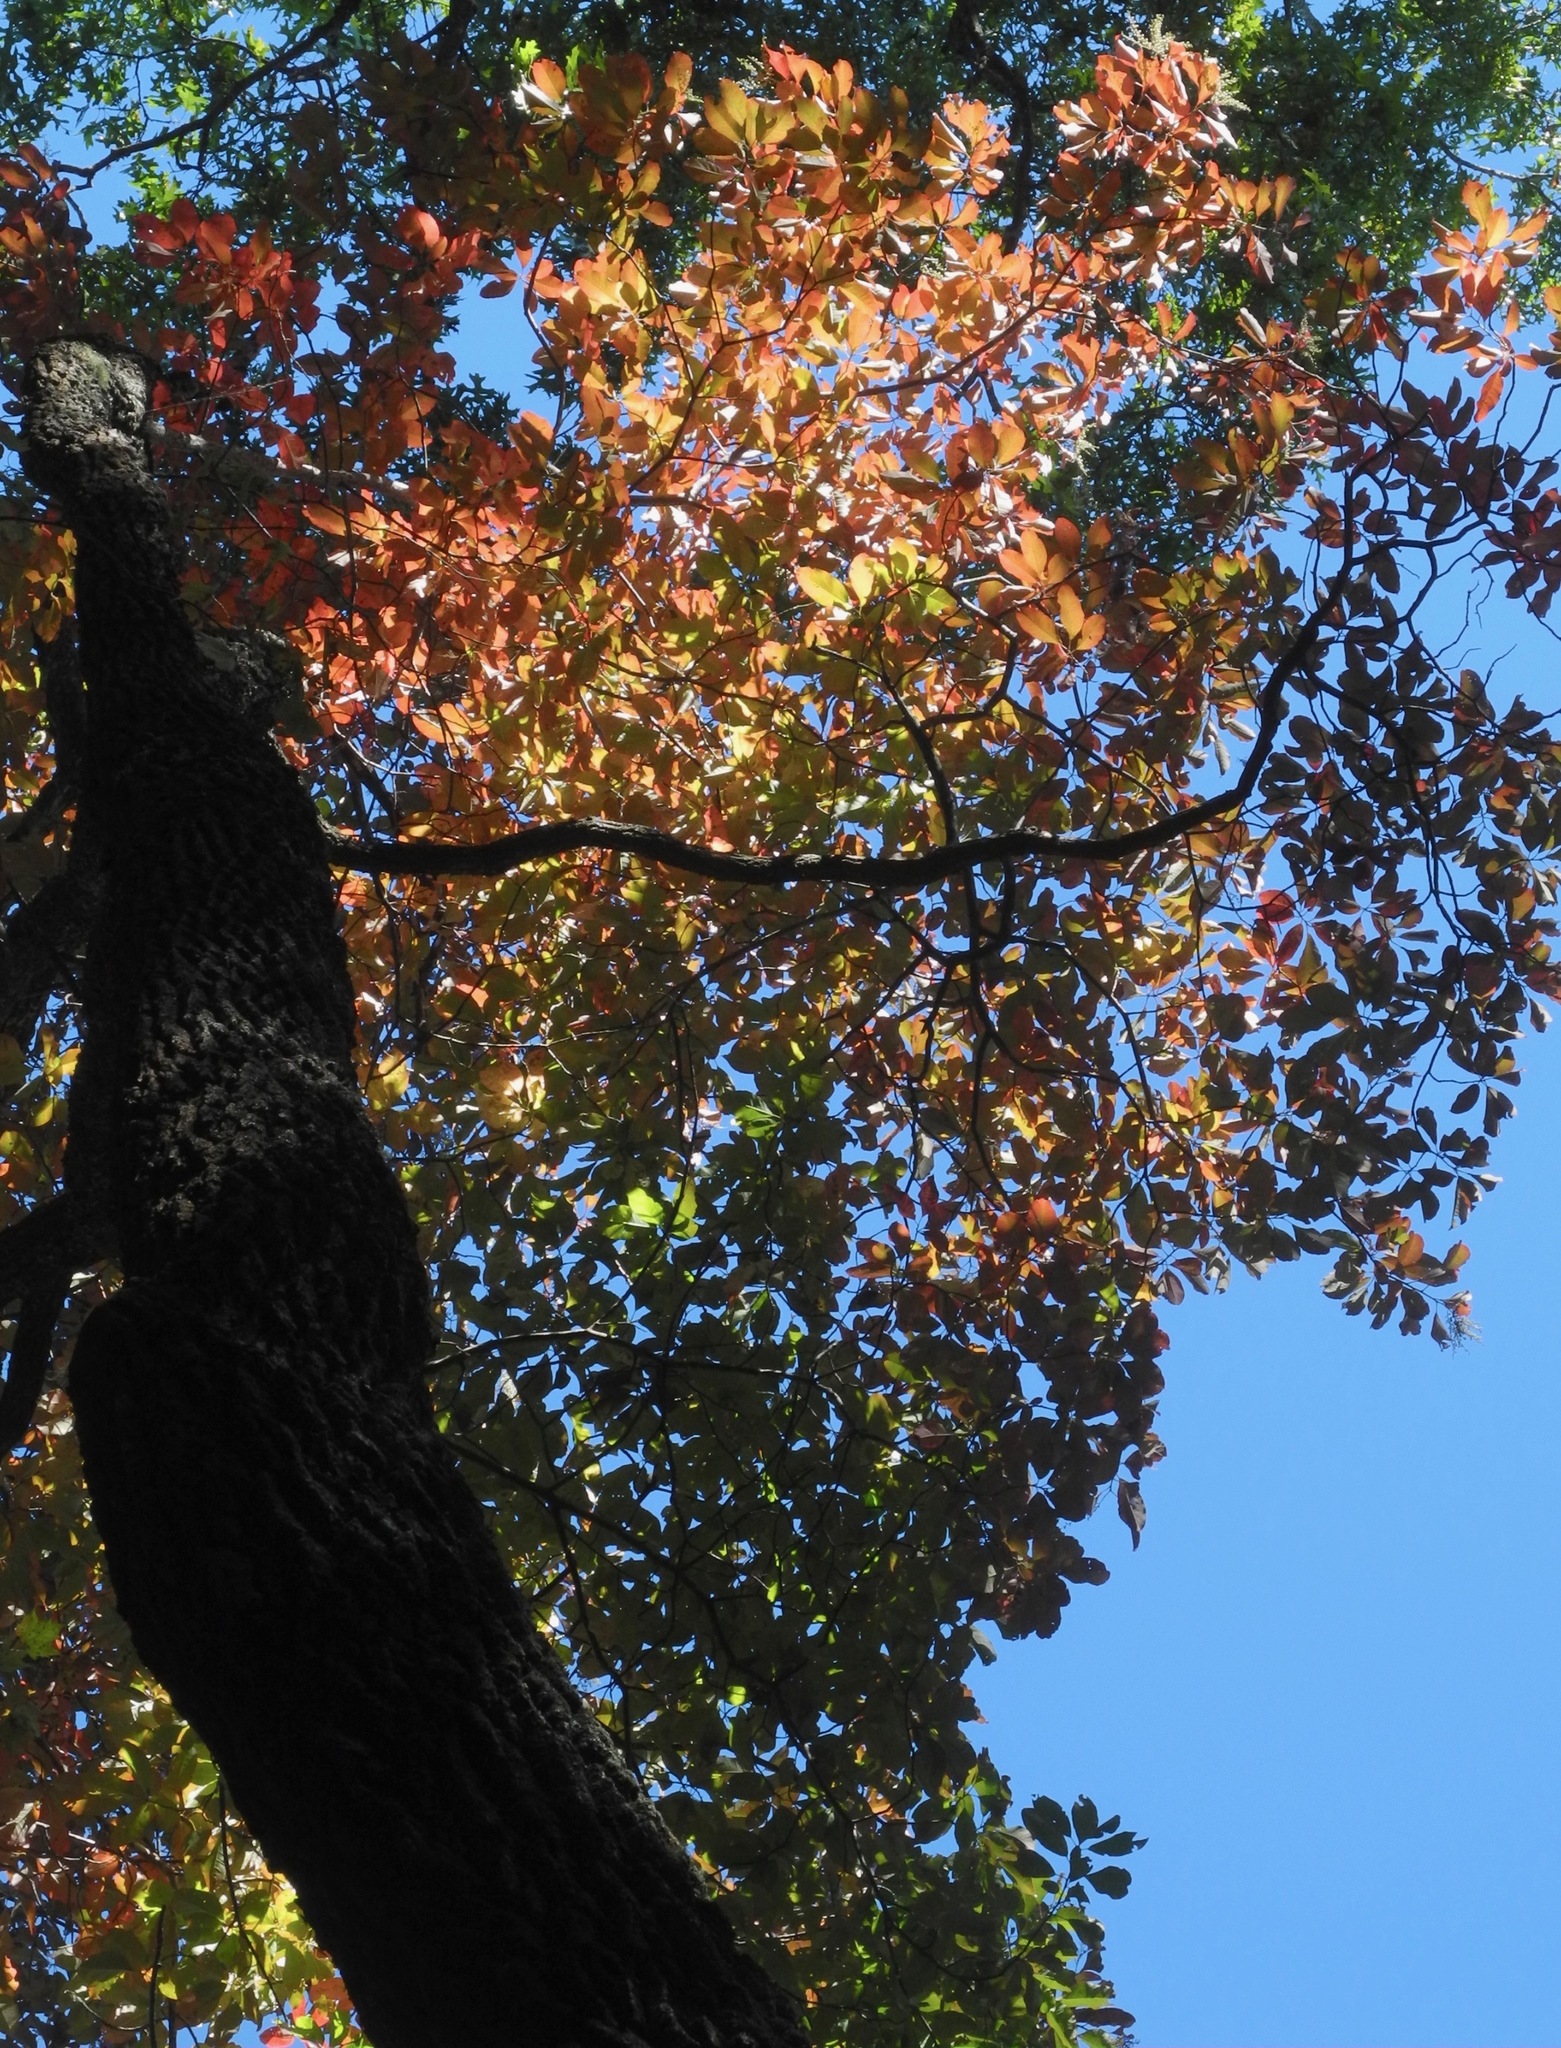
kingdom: Plantae
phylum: Tracheophyta
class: Magnoliopsida
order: Ericales
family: Ericaceae
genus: Oxydendrum
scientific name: Oxydendrum arboreum
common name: Sourwood
